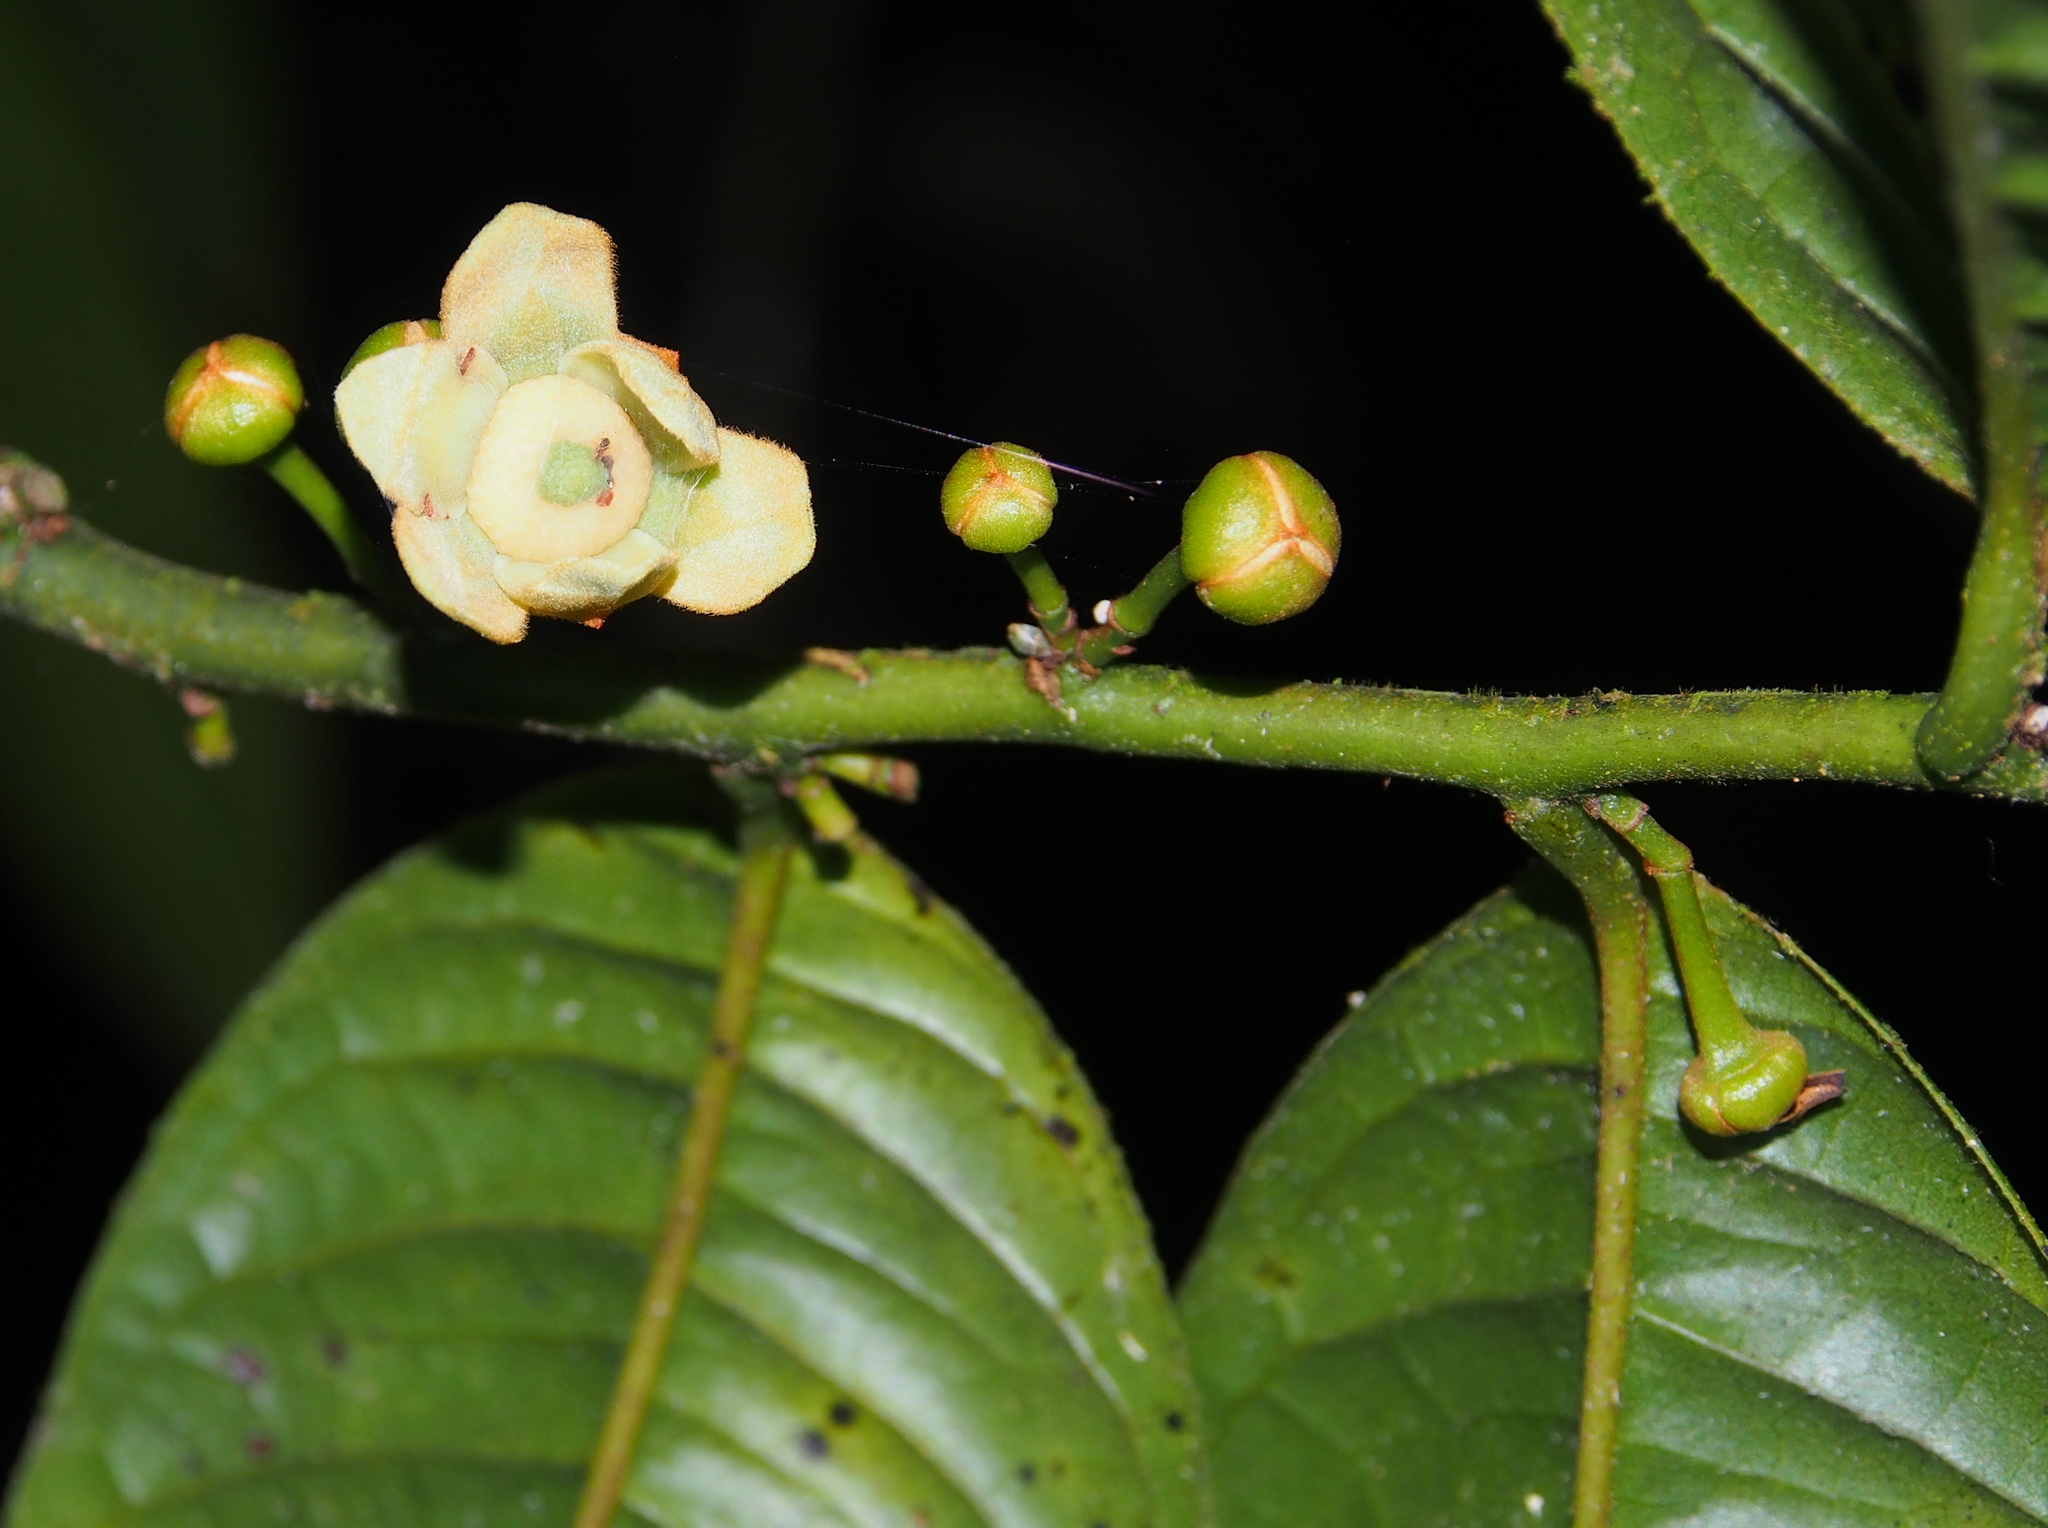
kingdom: Plantae
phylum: Tracheophyta
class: Magnoliopsida
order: Magnoliales
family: Annonaceae
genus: Guatteria
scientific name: Guatteria amplifolia
